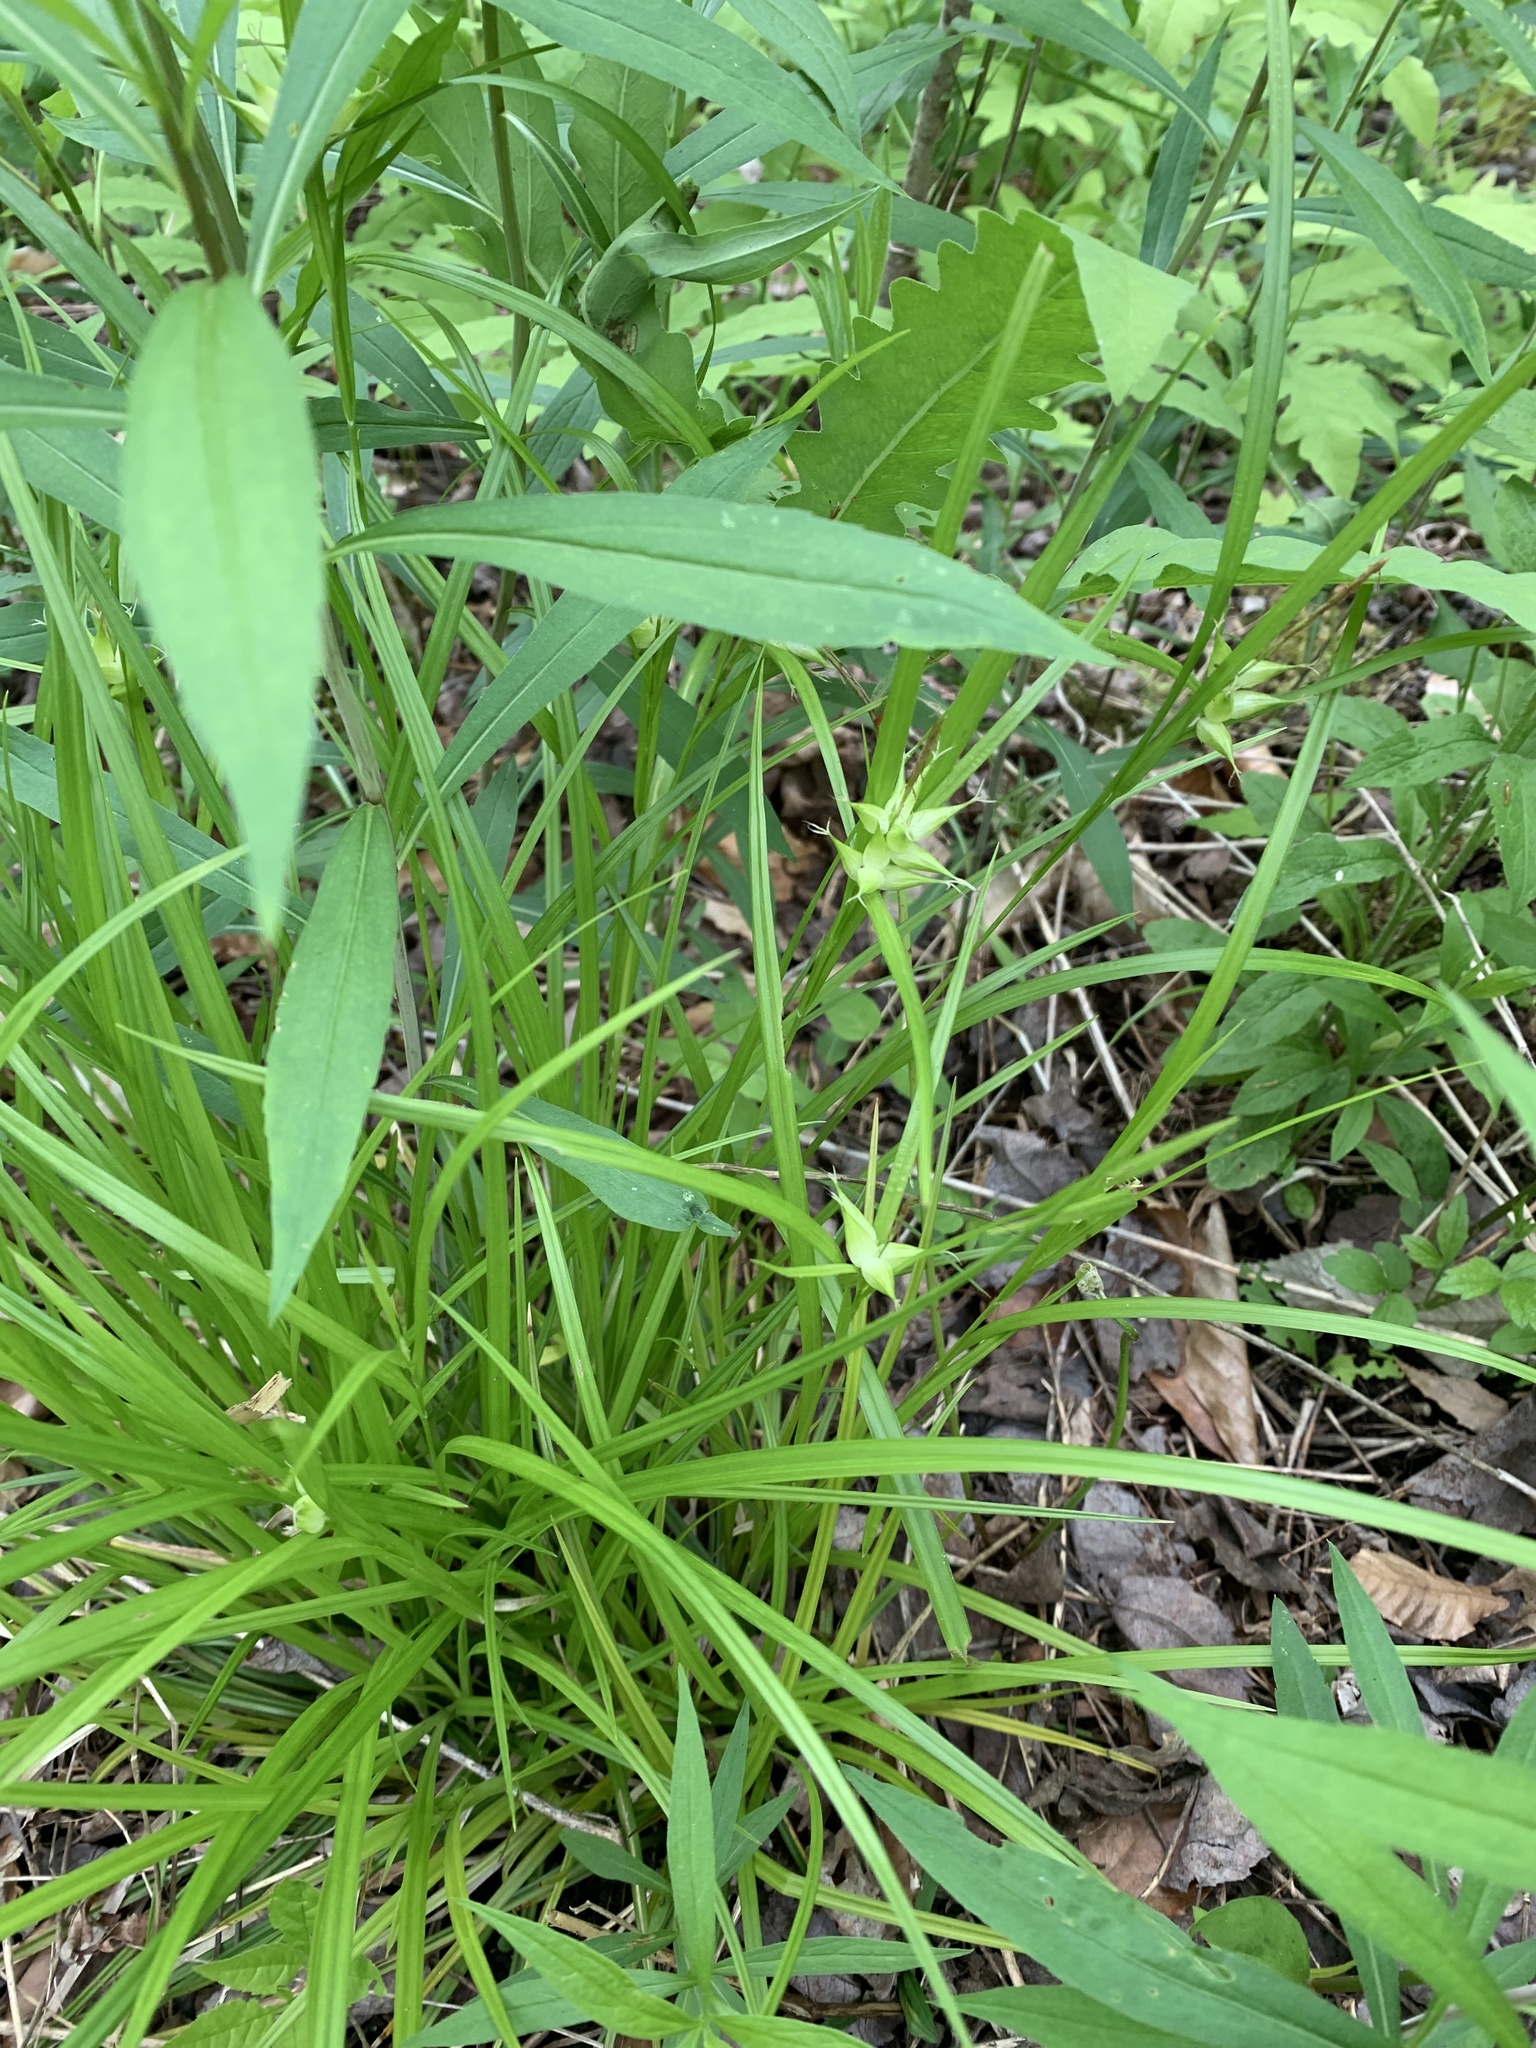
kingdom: Plantae
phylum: Tracheophyta
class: Liliopsida
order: Poales
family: Cyperaceae
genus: Carex
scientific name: Carex intumescens
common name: Greater bladder sedge
